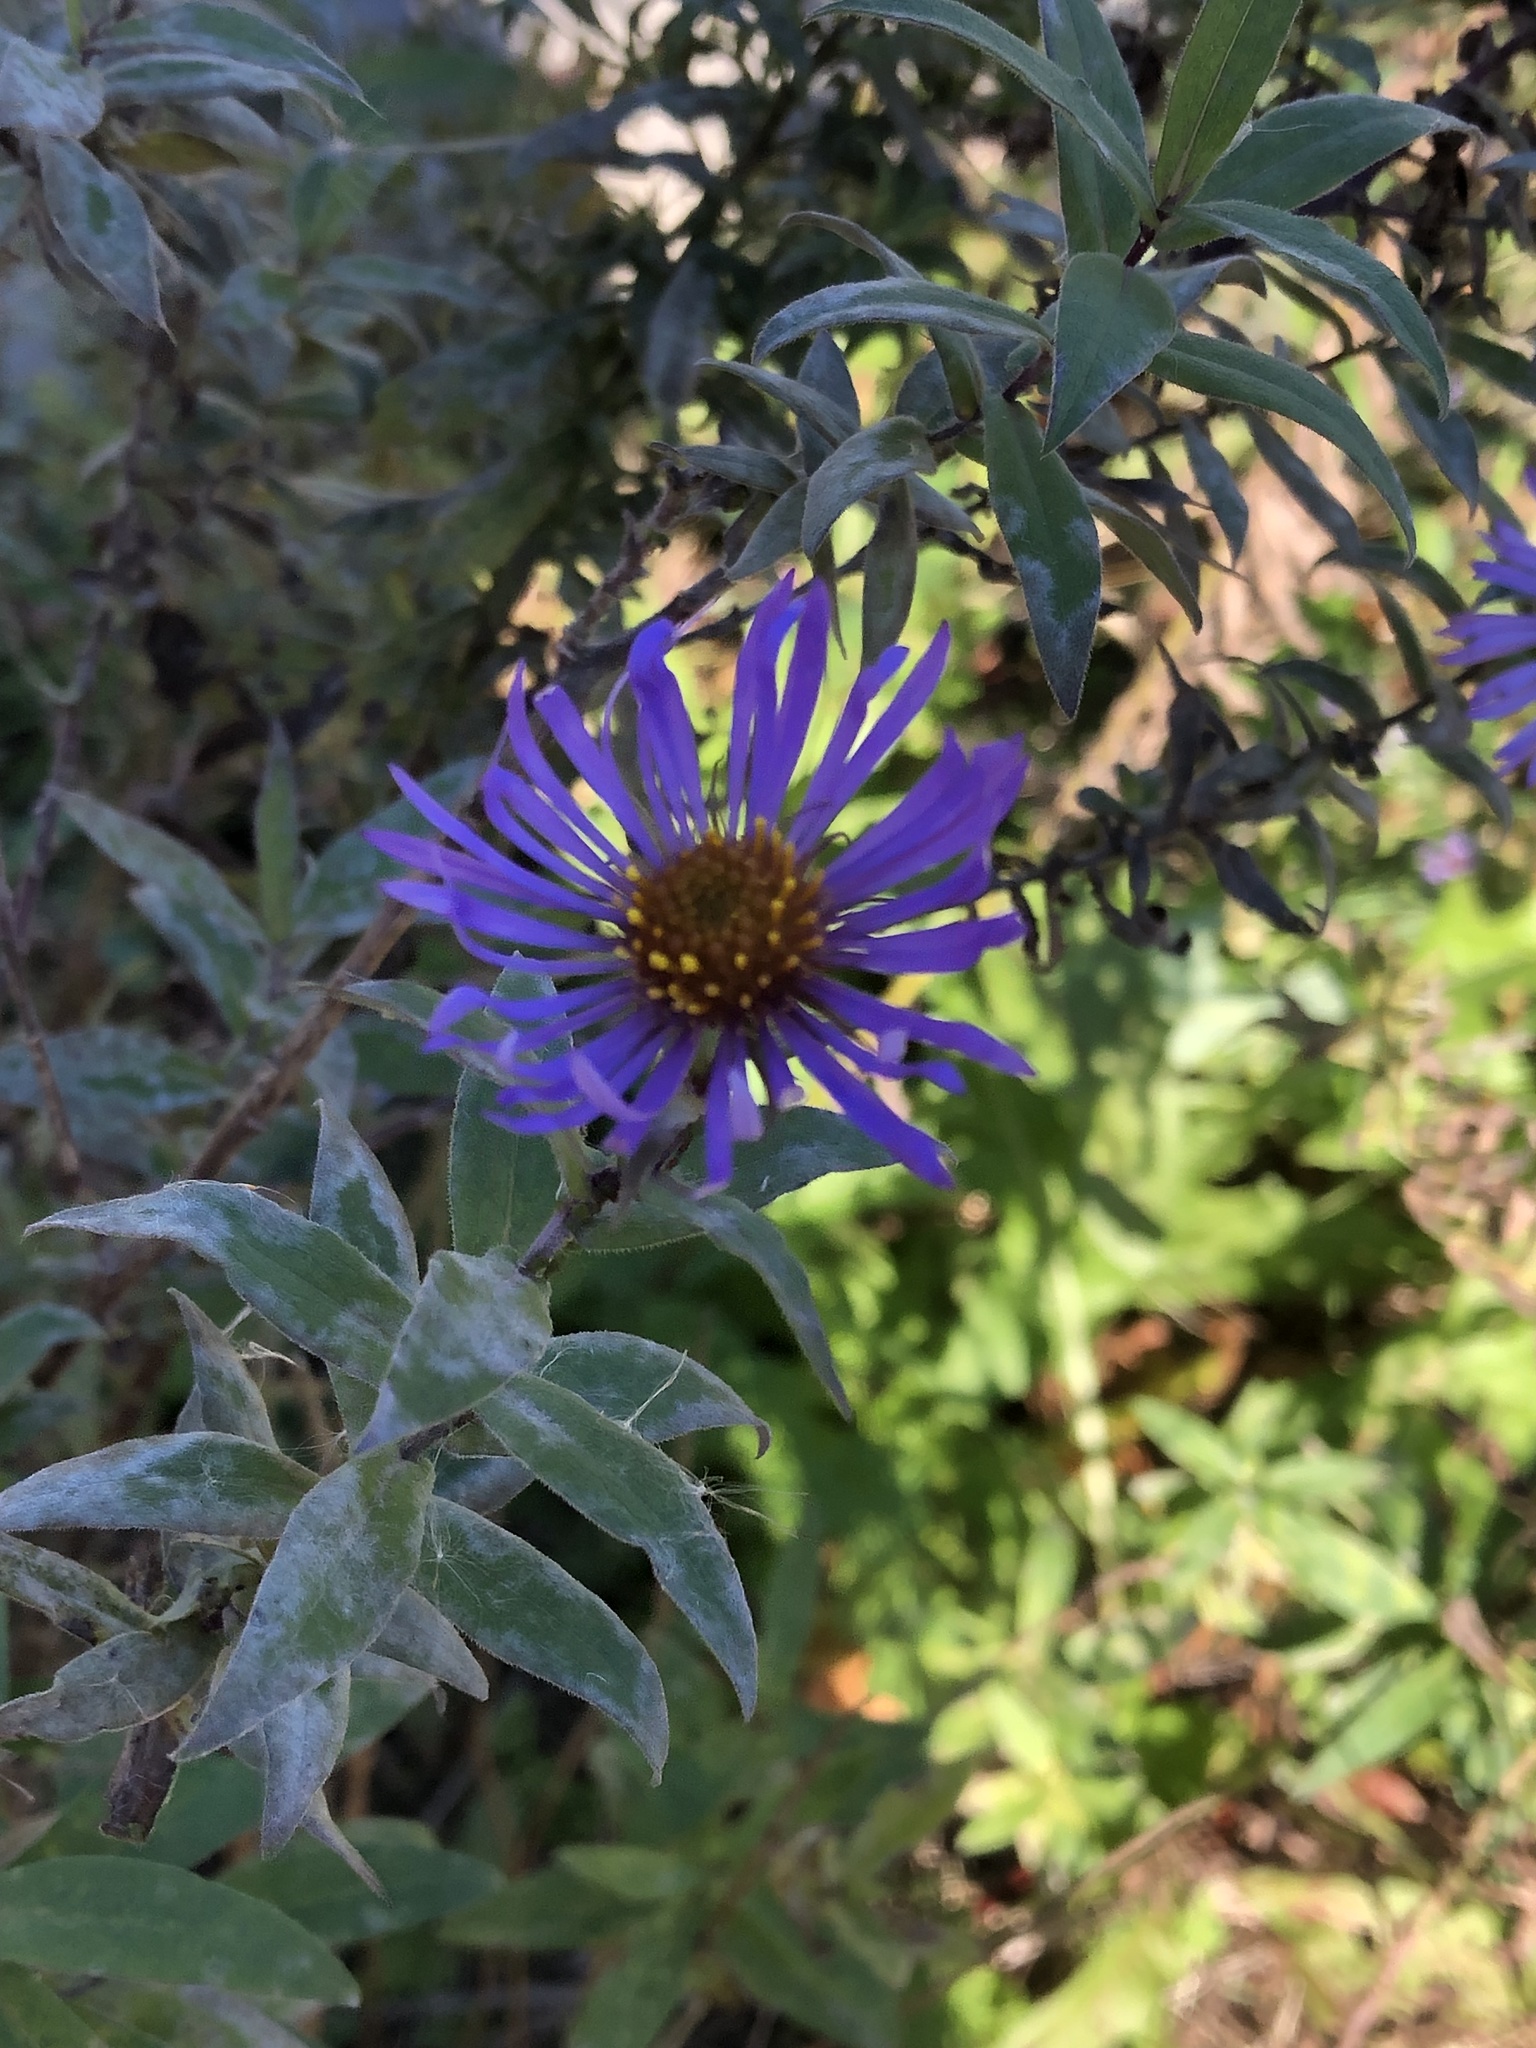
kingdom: Plantae
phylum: Tracheophyta
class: Magnoliopsida
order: Asterales
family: Asteraceae
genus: Symphyotrichum
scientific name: Symphyotrichum novae-angliae
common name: Michaelmas daisy
